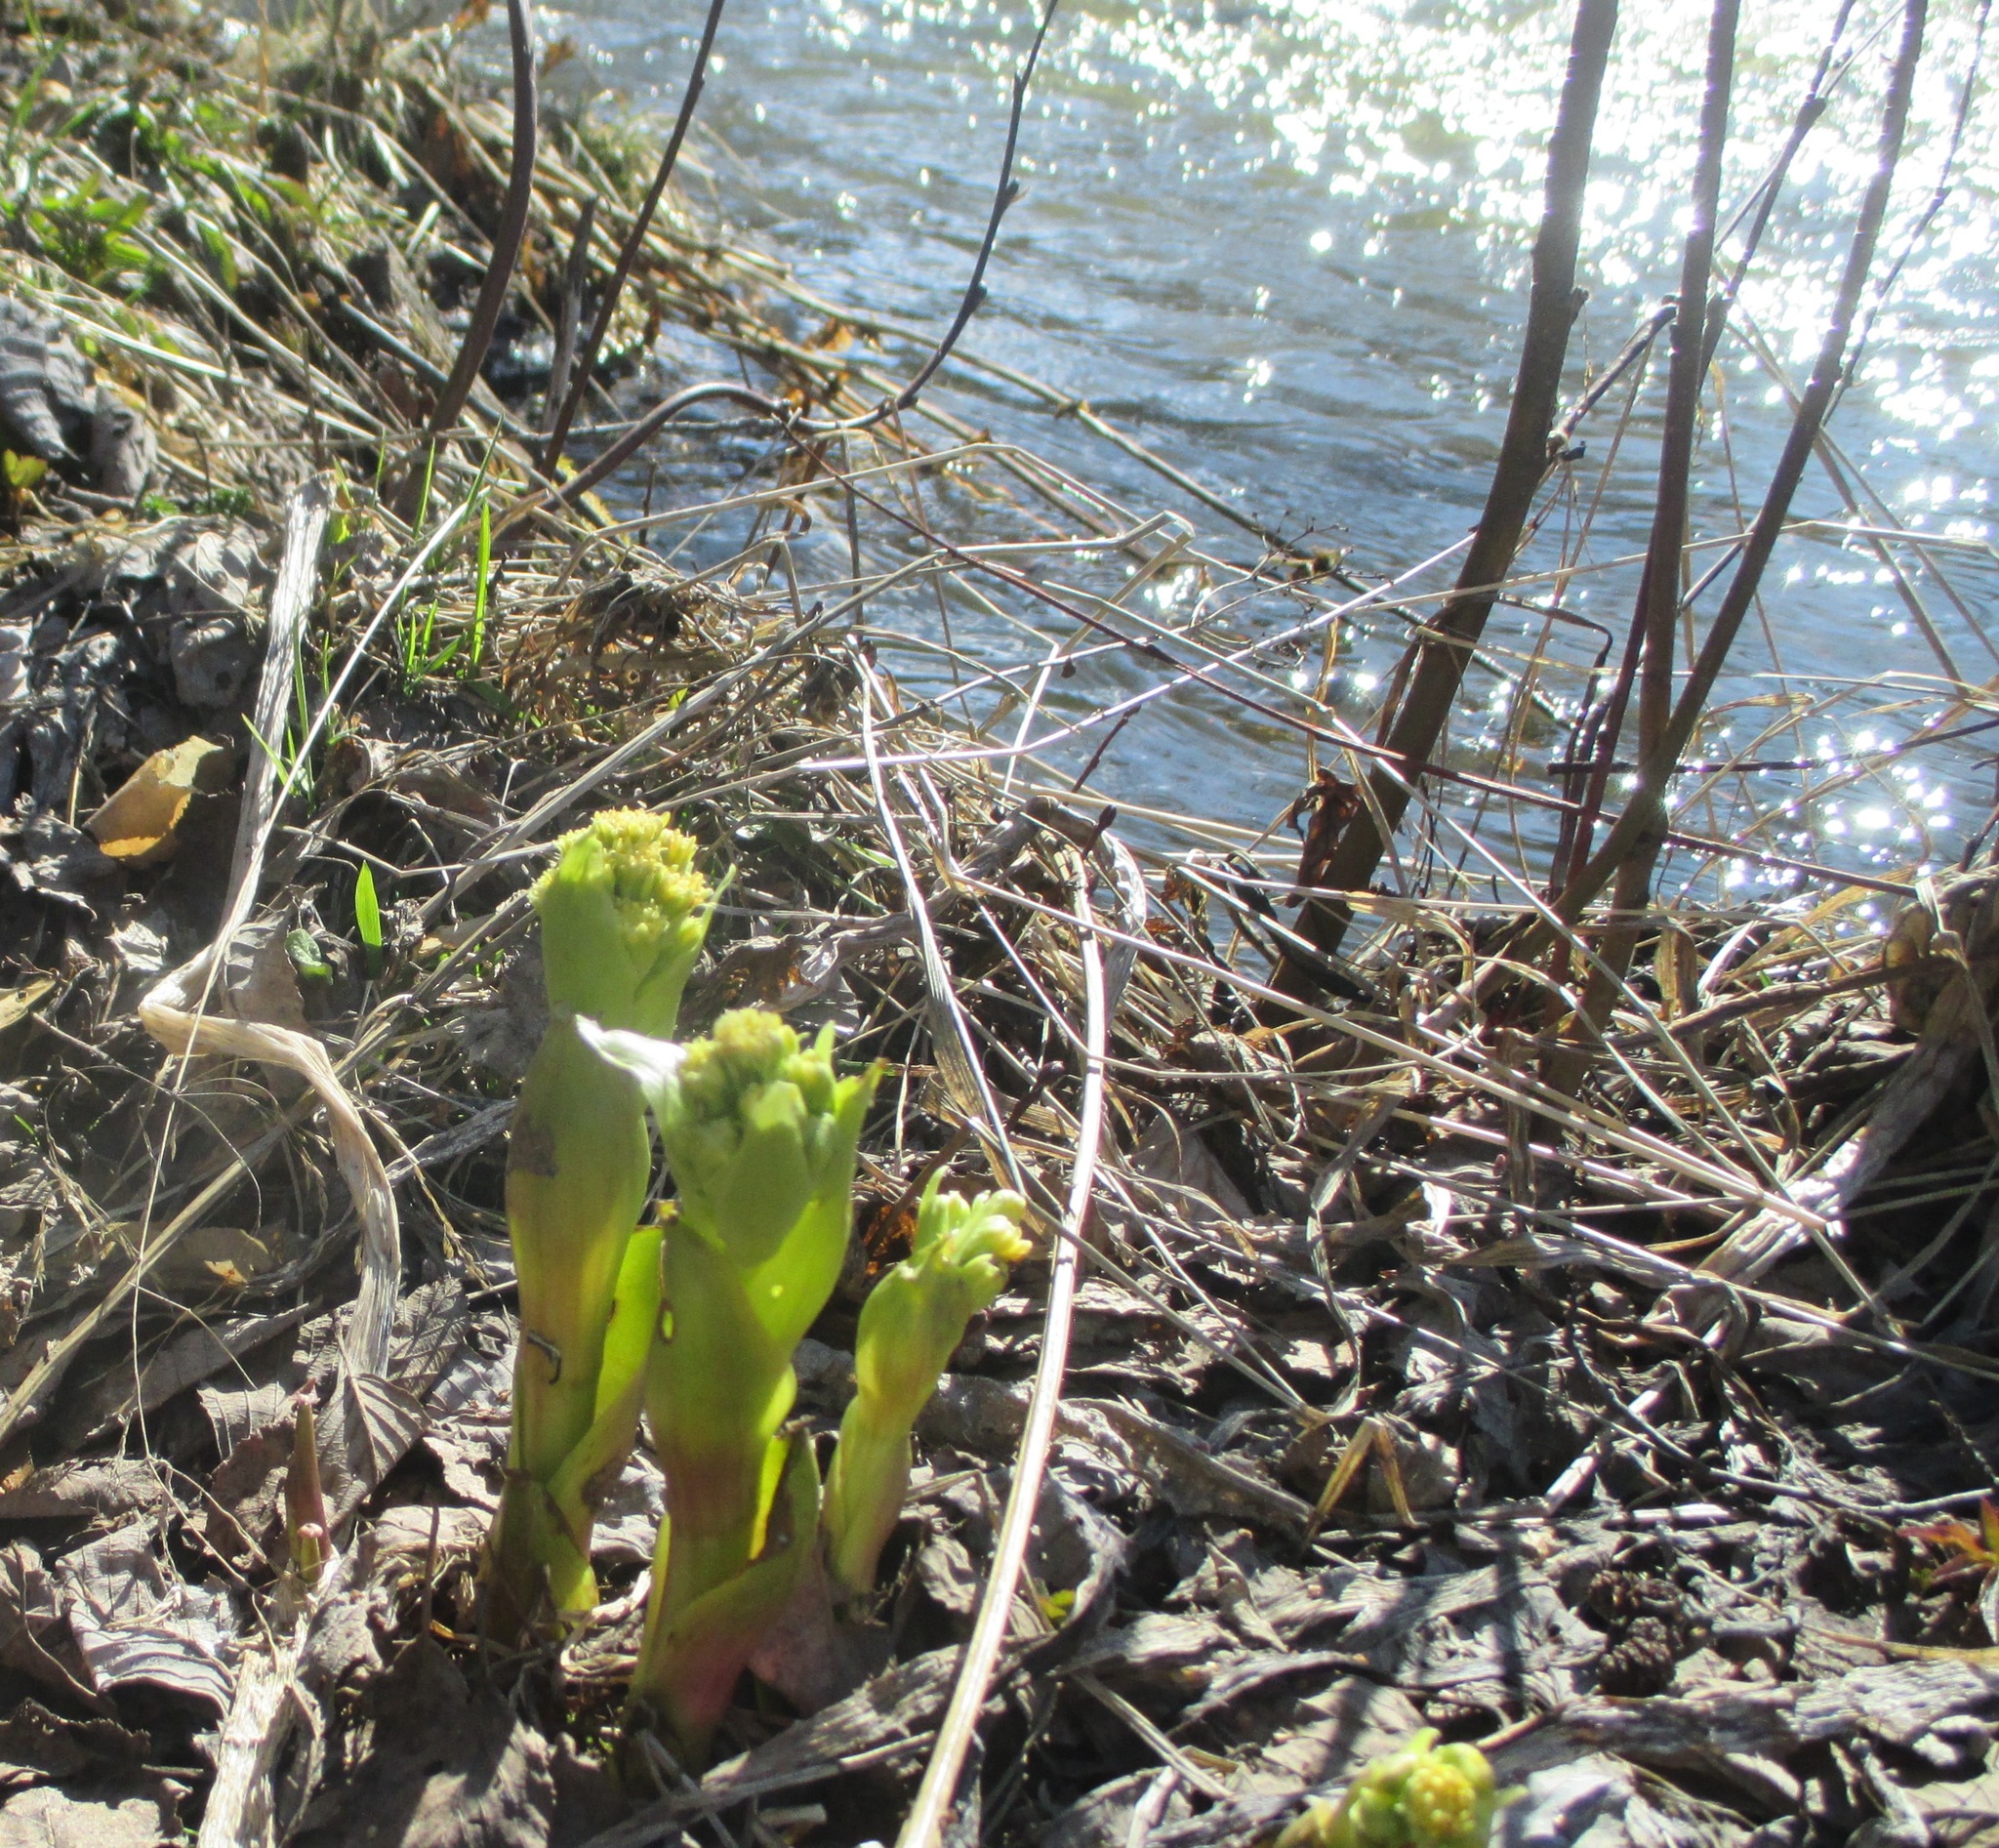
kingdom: Plantae
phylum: Tracheophyta
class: Magnoliopsida
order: Asterales
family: Asteraceae
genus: Petasites
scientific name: Petasites spurius
